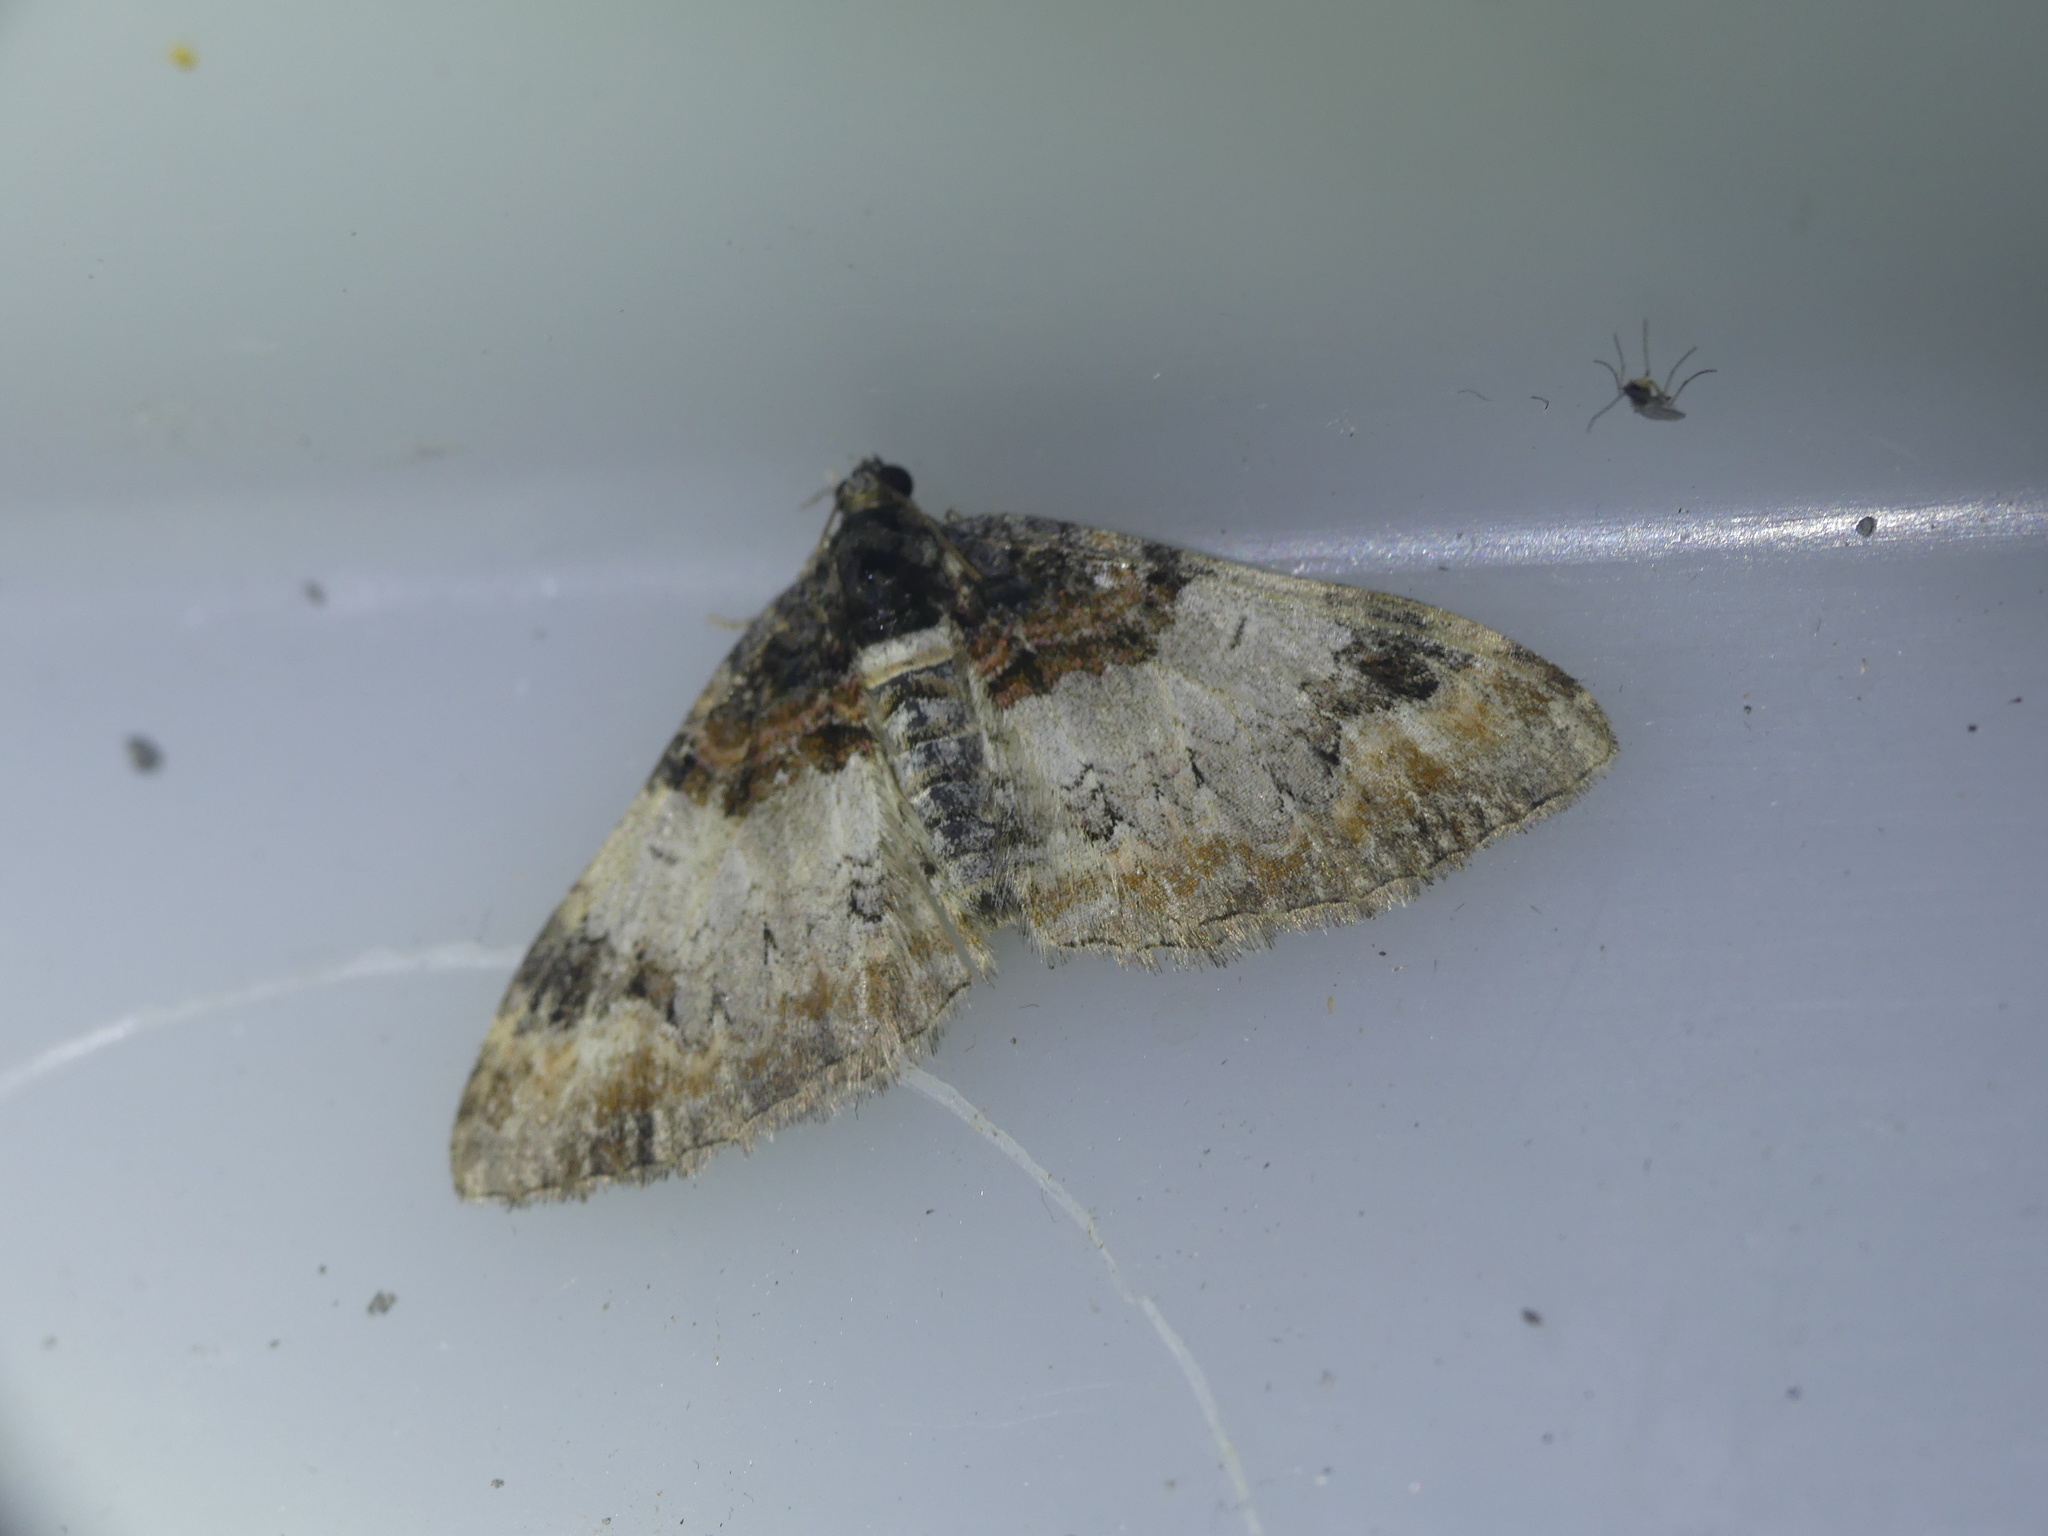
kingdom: Animalia
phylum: Arthropoda
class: Insecta
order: Lepidoptera
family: Geometridae
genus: Catarhoe
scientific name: Catarhoe cuculata
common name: Royal mantle
